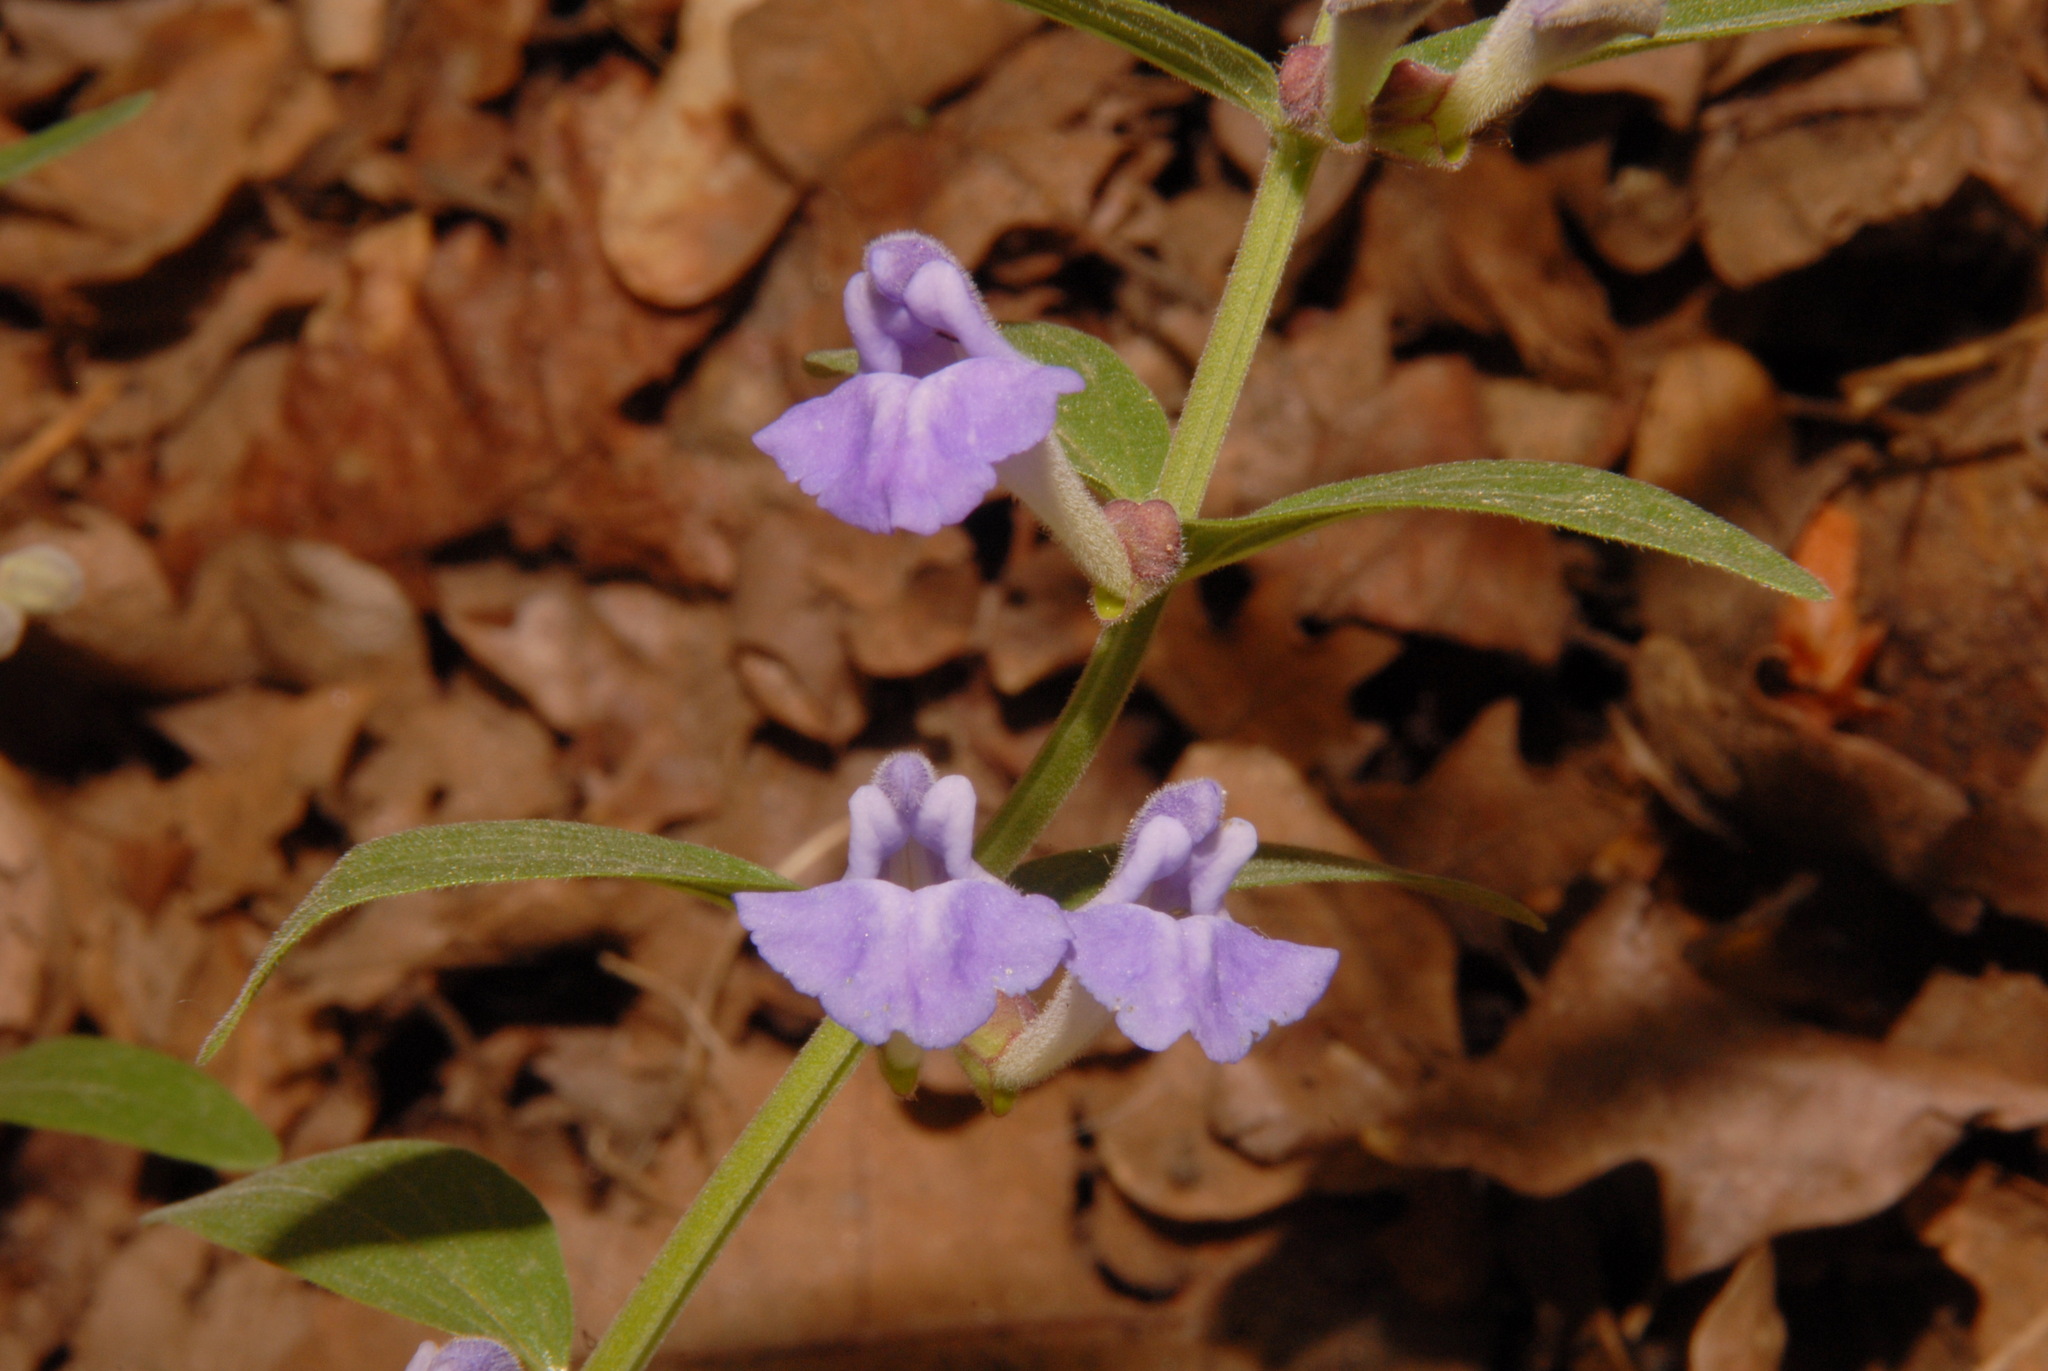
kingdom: Plantae
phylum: Tracheophyta
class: Magnoliopsida
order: Lamiales
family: Lamiaceae
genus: Scutellaria
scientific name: Scutellaria brittonii
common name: Britton's skullcap
